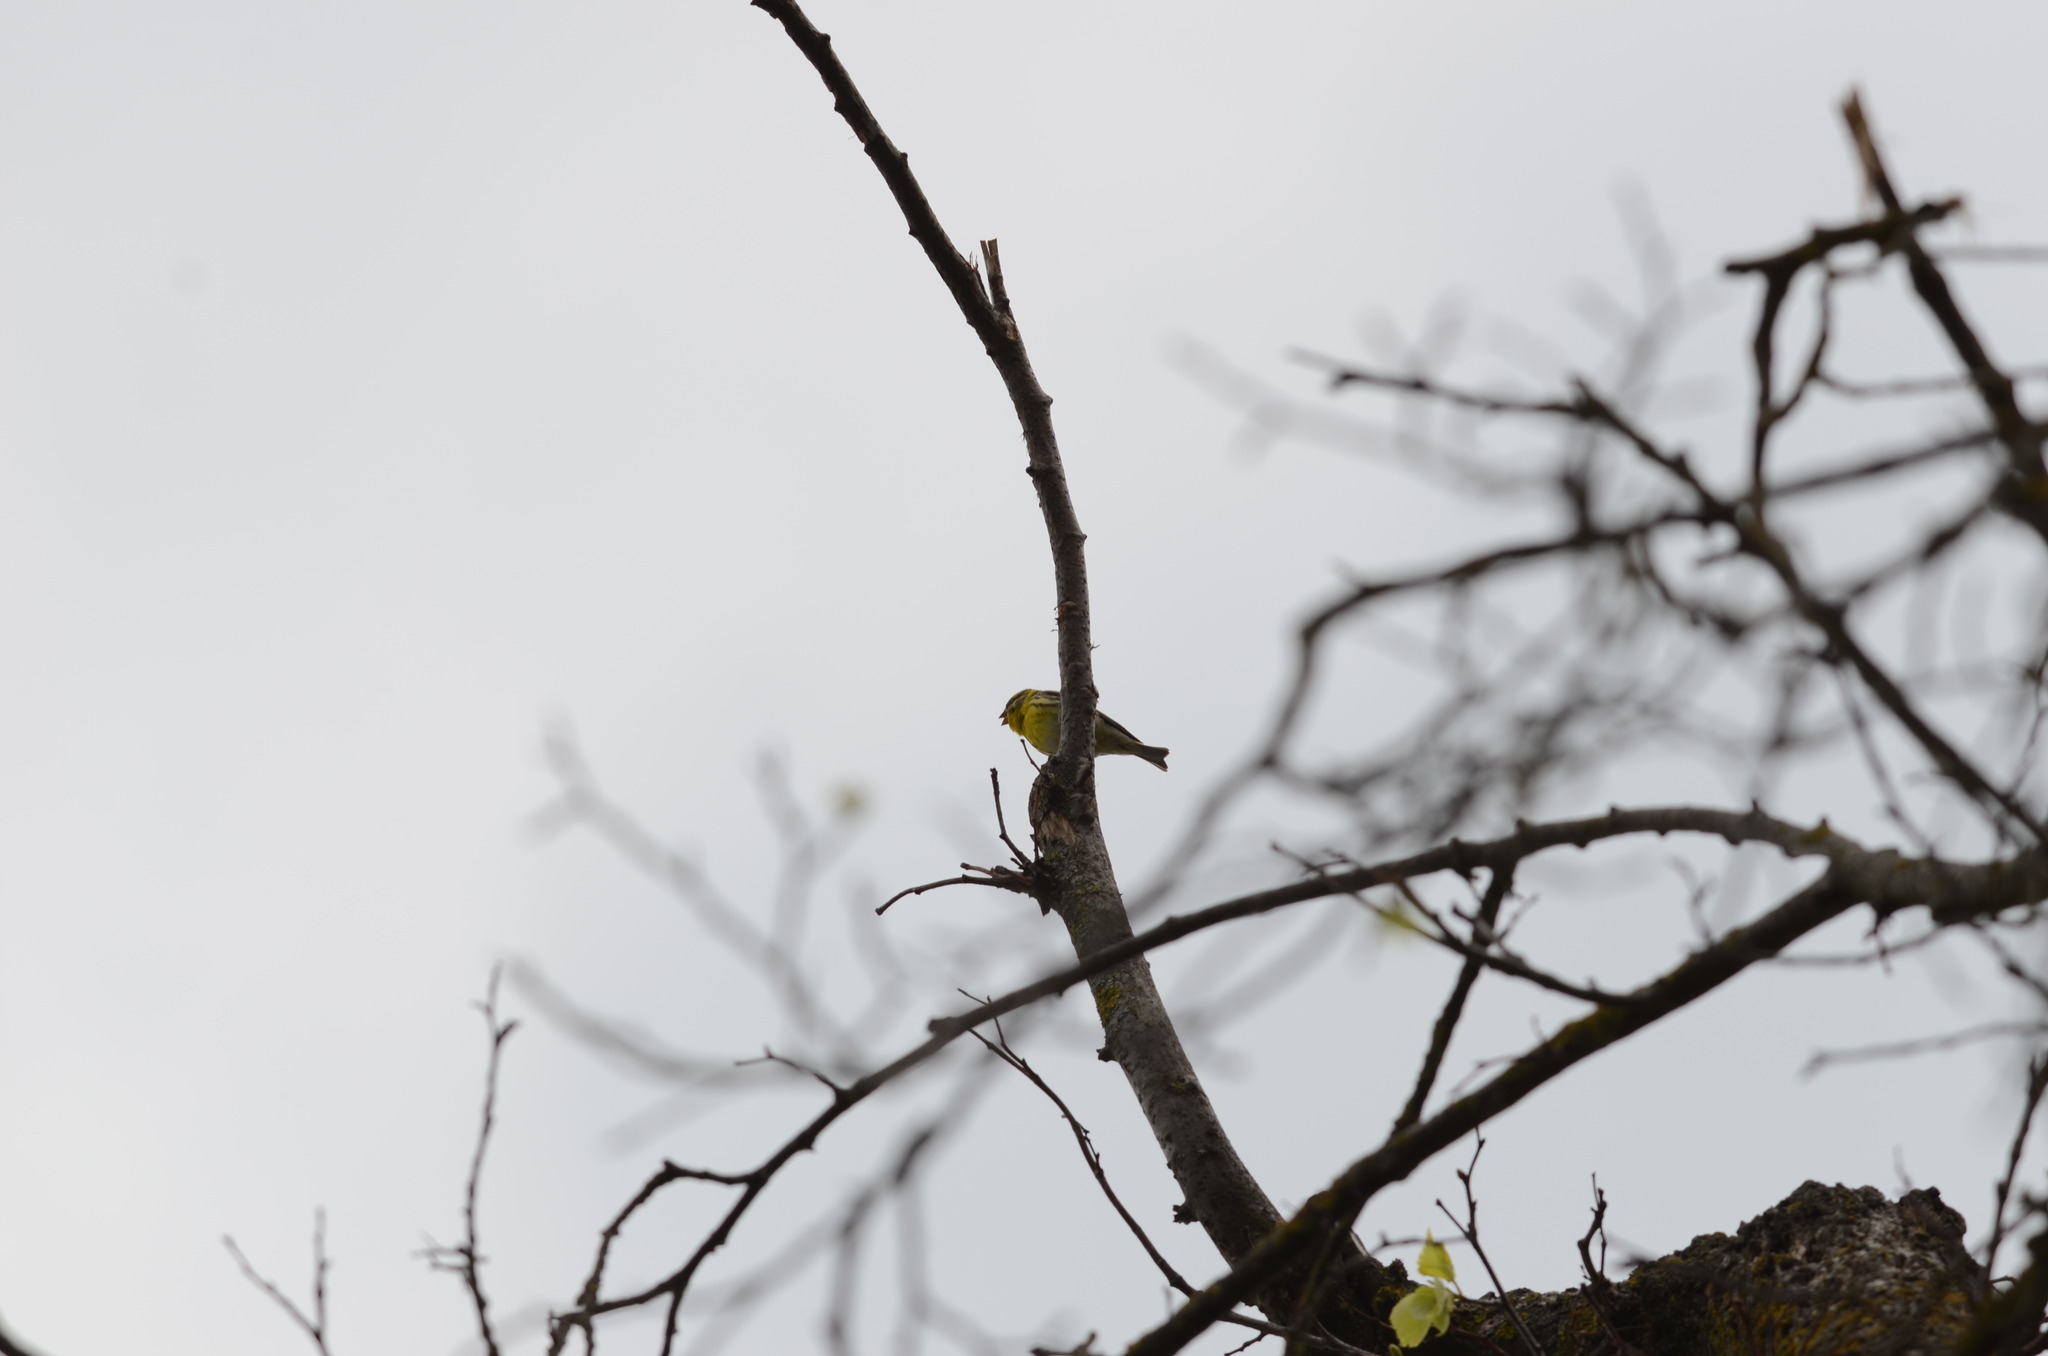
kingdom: Animalia
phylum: Chordata
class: Aves
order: Passeriformes
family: Fringillidae
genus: Serinus
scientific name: Serinus serinus
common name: European serin
